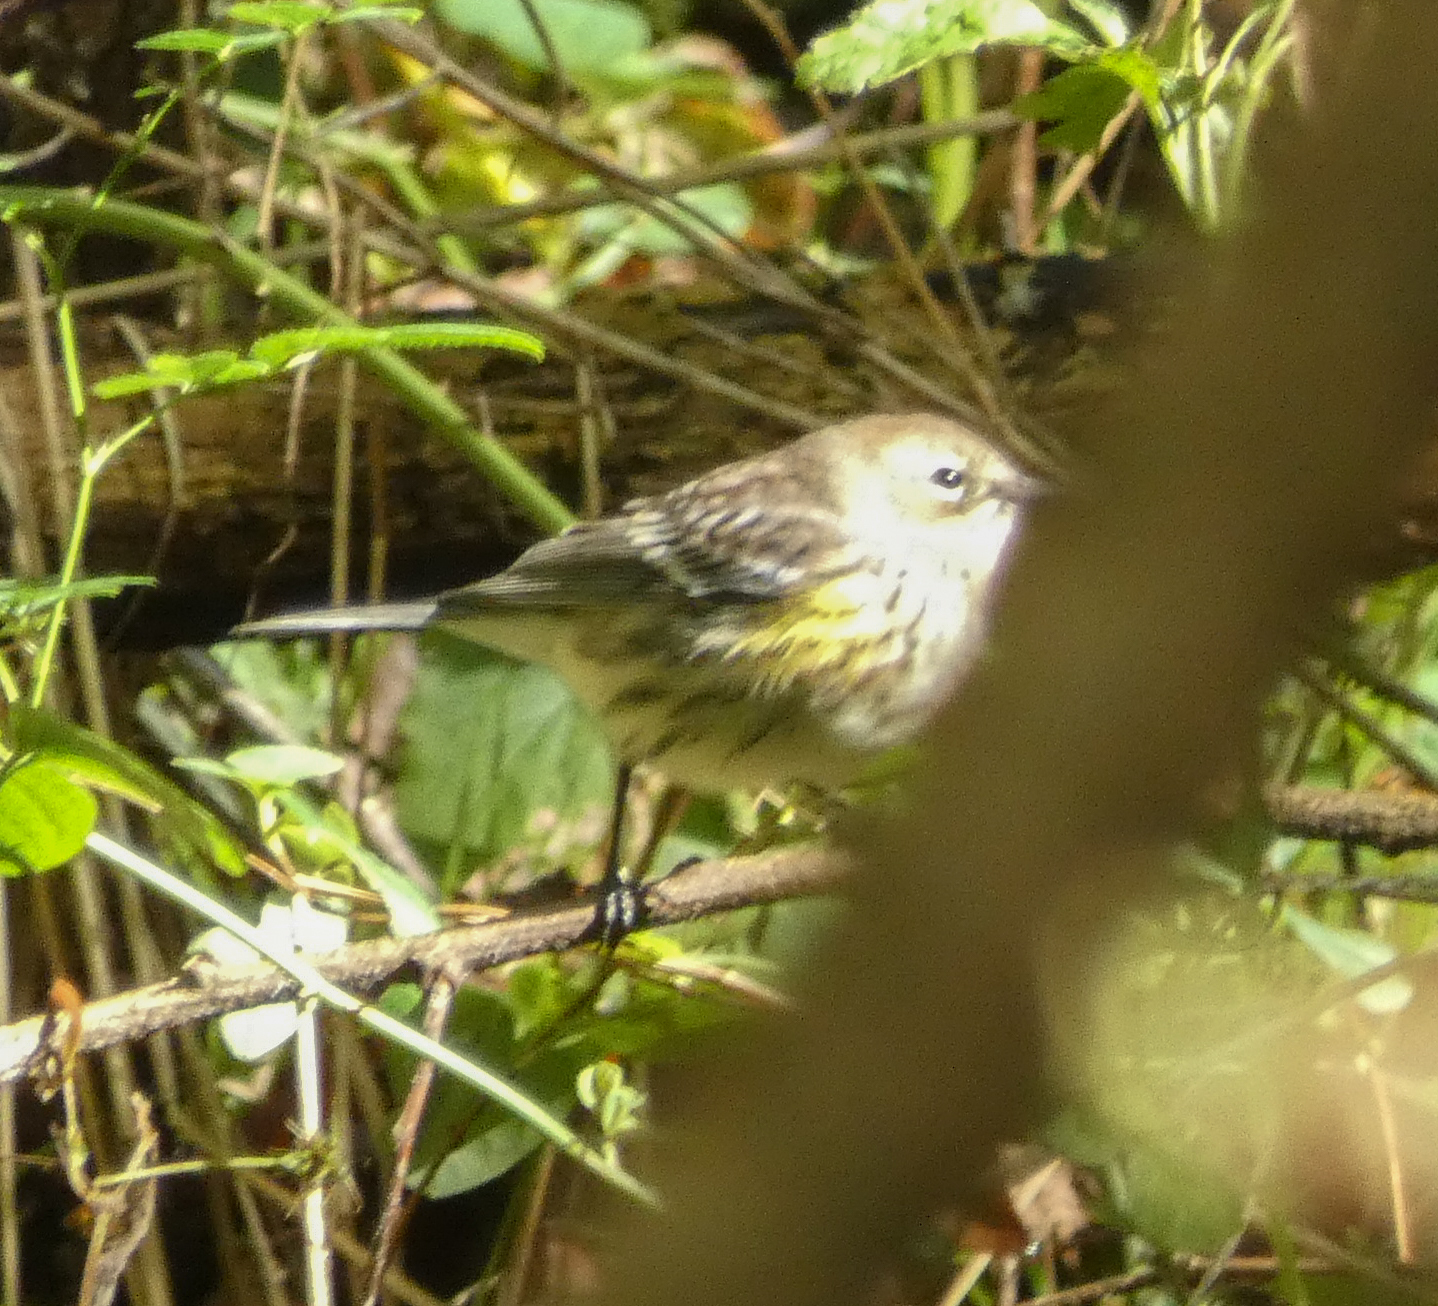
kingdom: Animalia
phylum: Chordata
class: Aves
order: Passeriformes
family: Parulidae
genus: Setophaga
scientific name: Setophaga coronata
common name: Myrtle warbler
